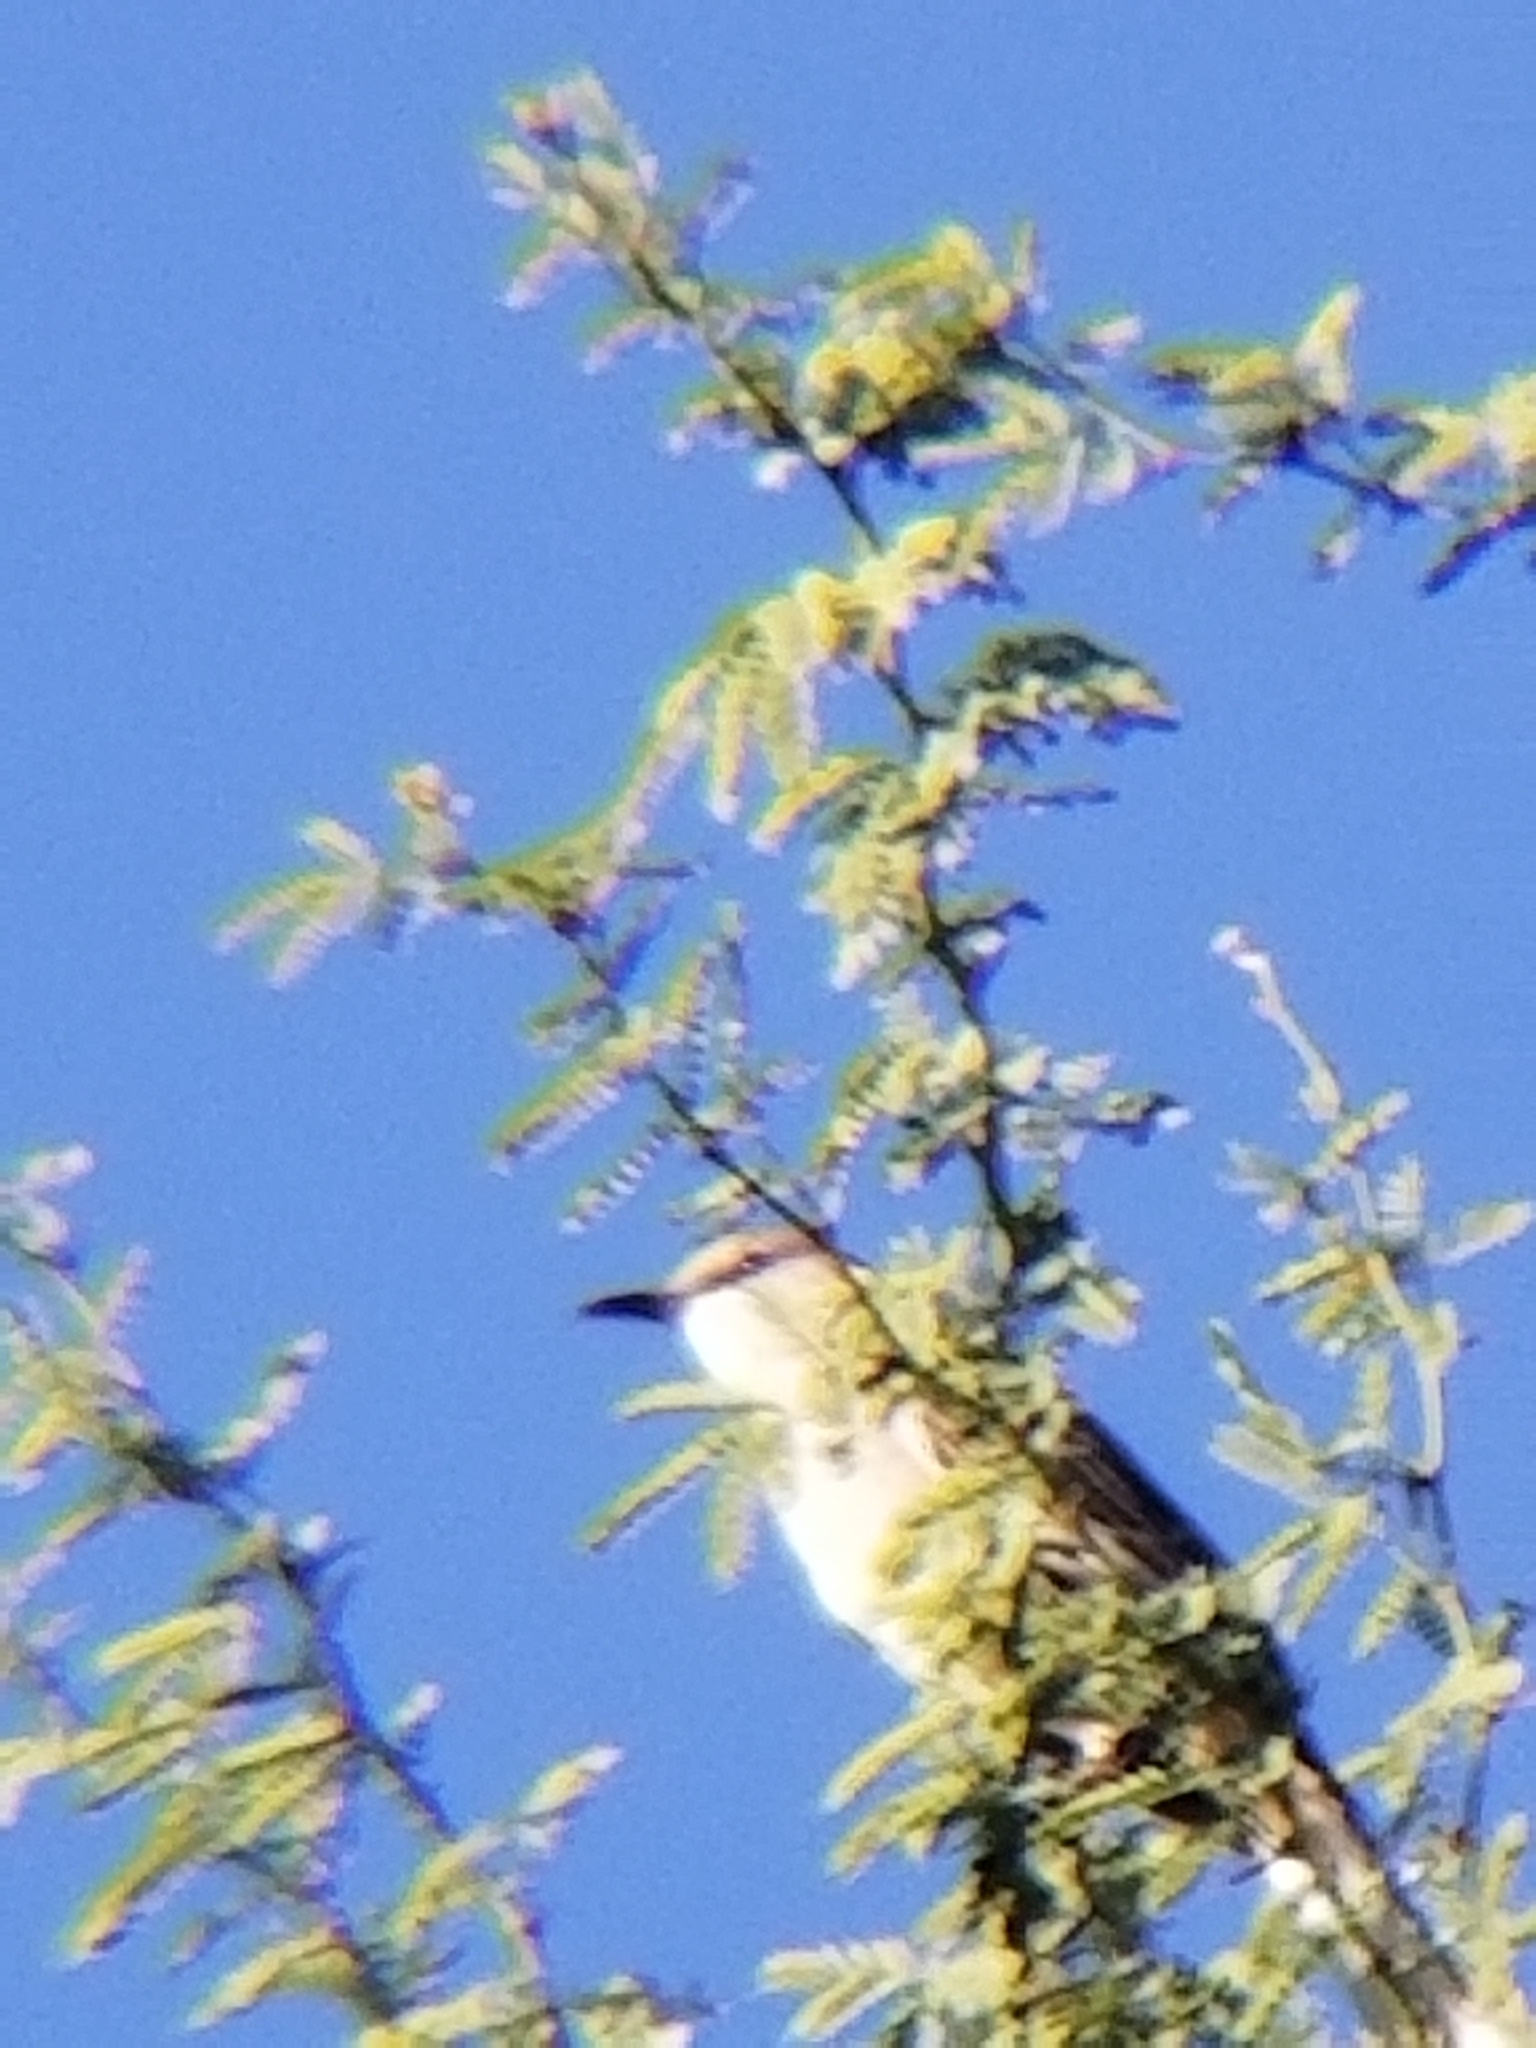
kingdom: Animalia
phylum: Chordata
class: Aves
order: Passeriformes
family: Mimidae
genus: Mimus
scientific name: Mimus polyglottos
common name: Northern mockingbird
